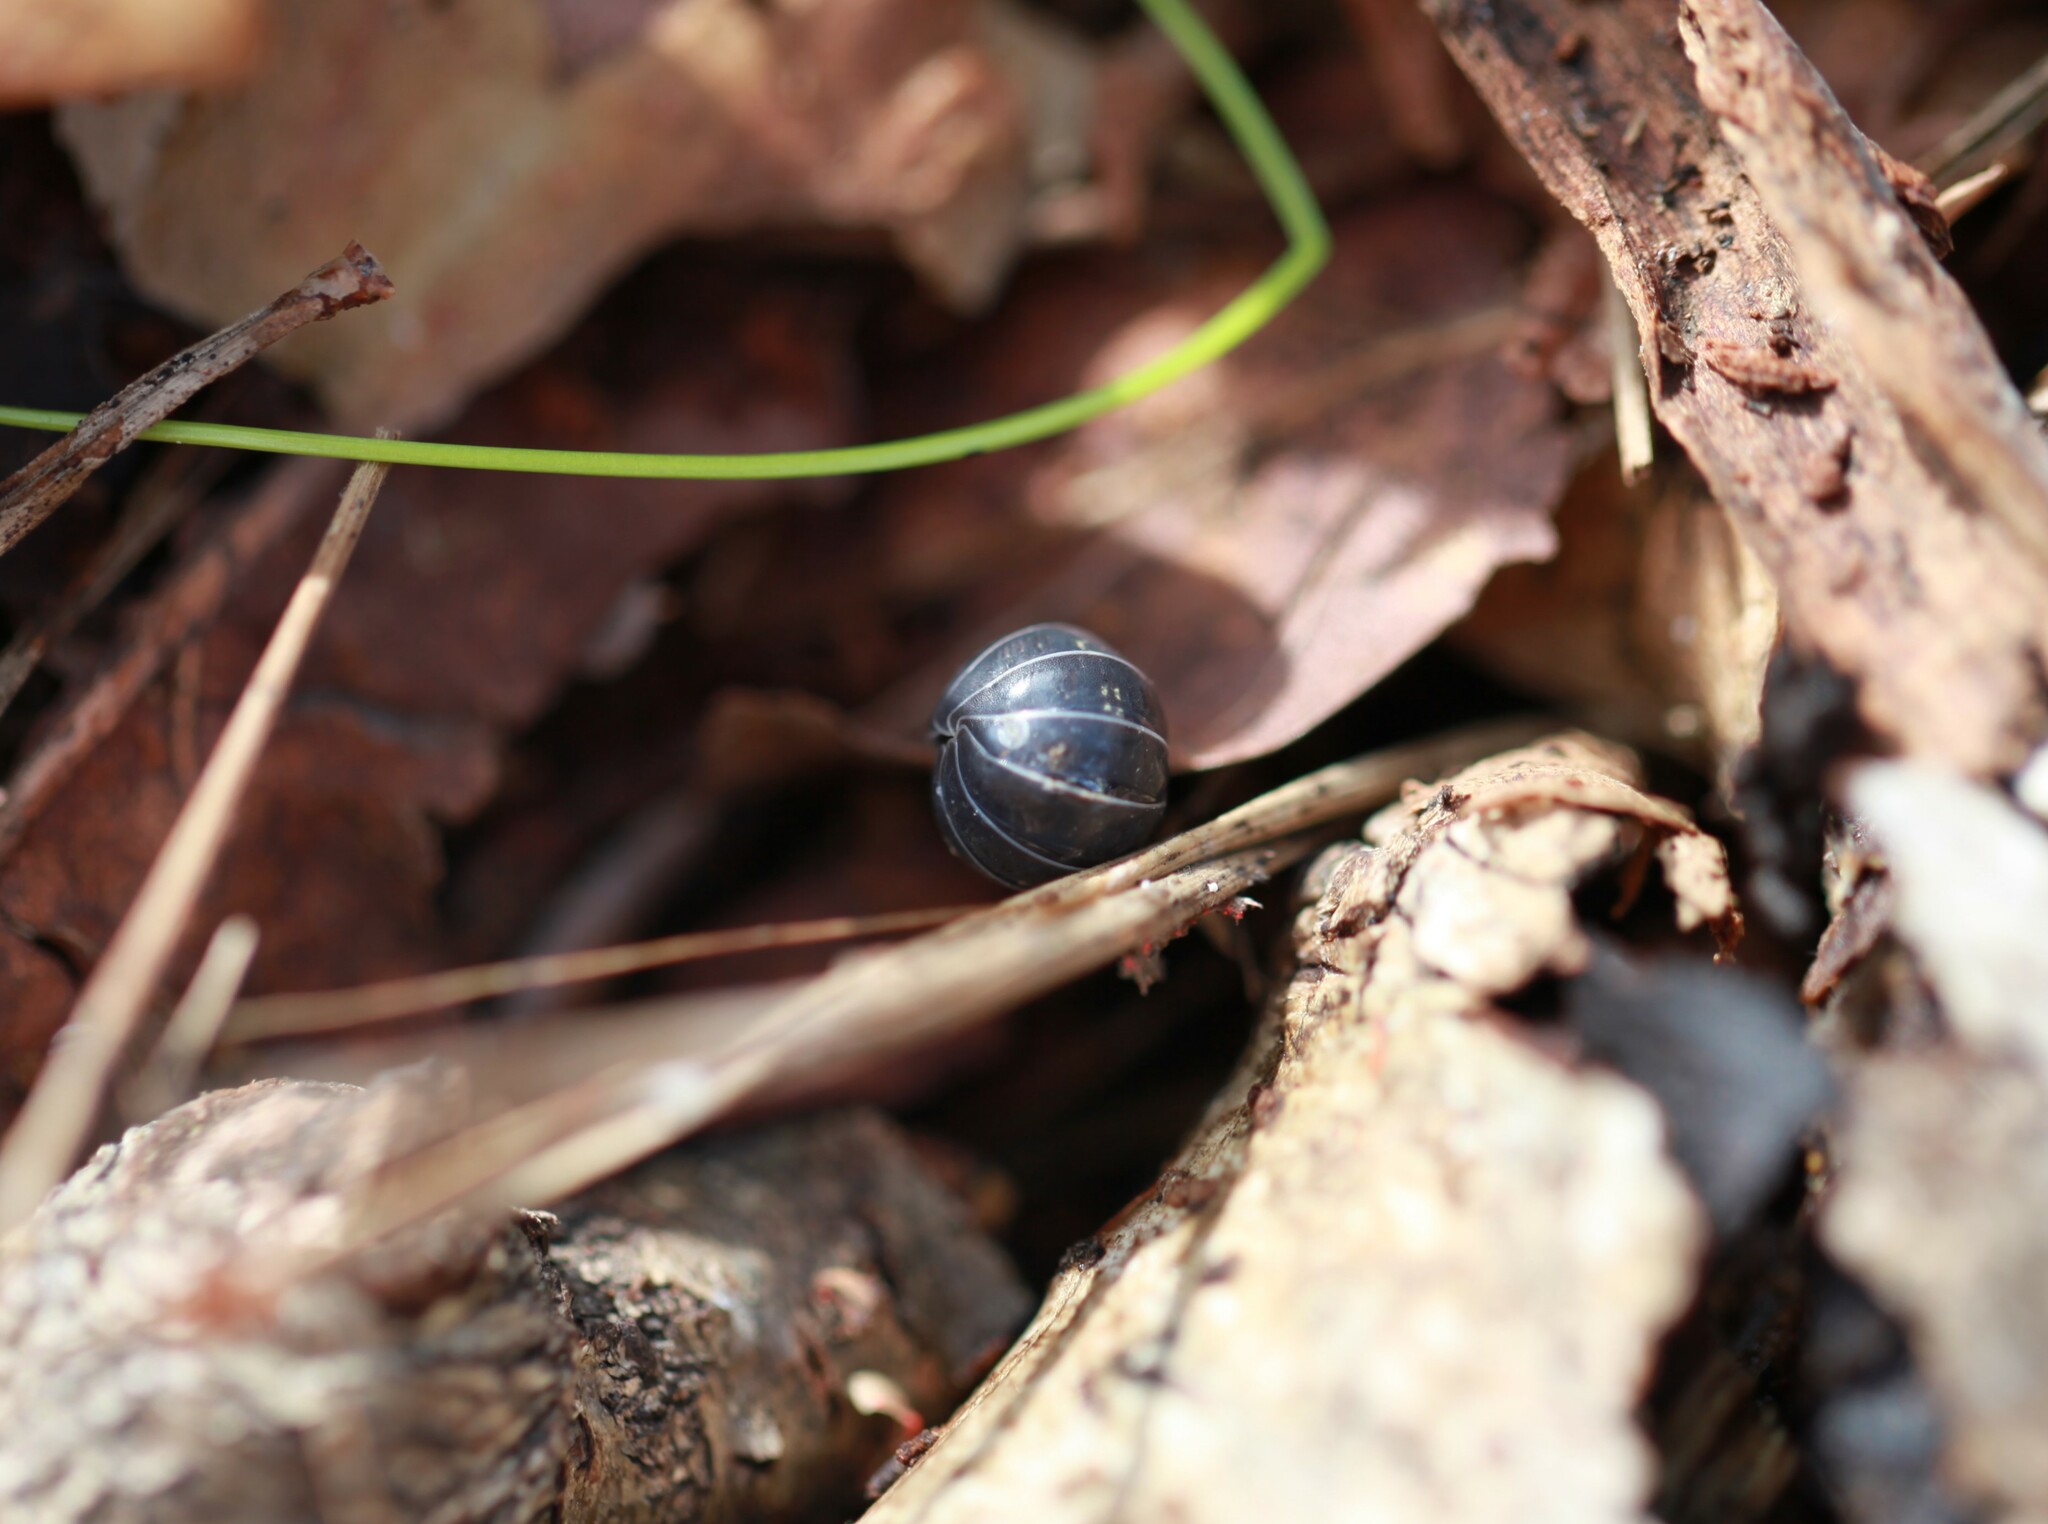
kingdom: Animalia
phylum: Arthropoda
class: Malacostraca
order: Isopoda
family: Armadillidiidae
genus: Armadillidium
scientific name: Armadillidium vulgare
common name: Common pill woodlouse
